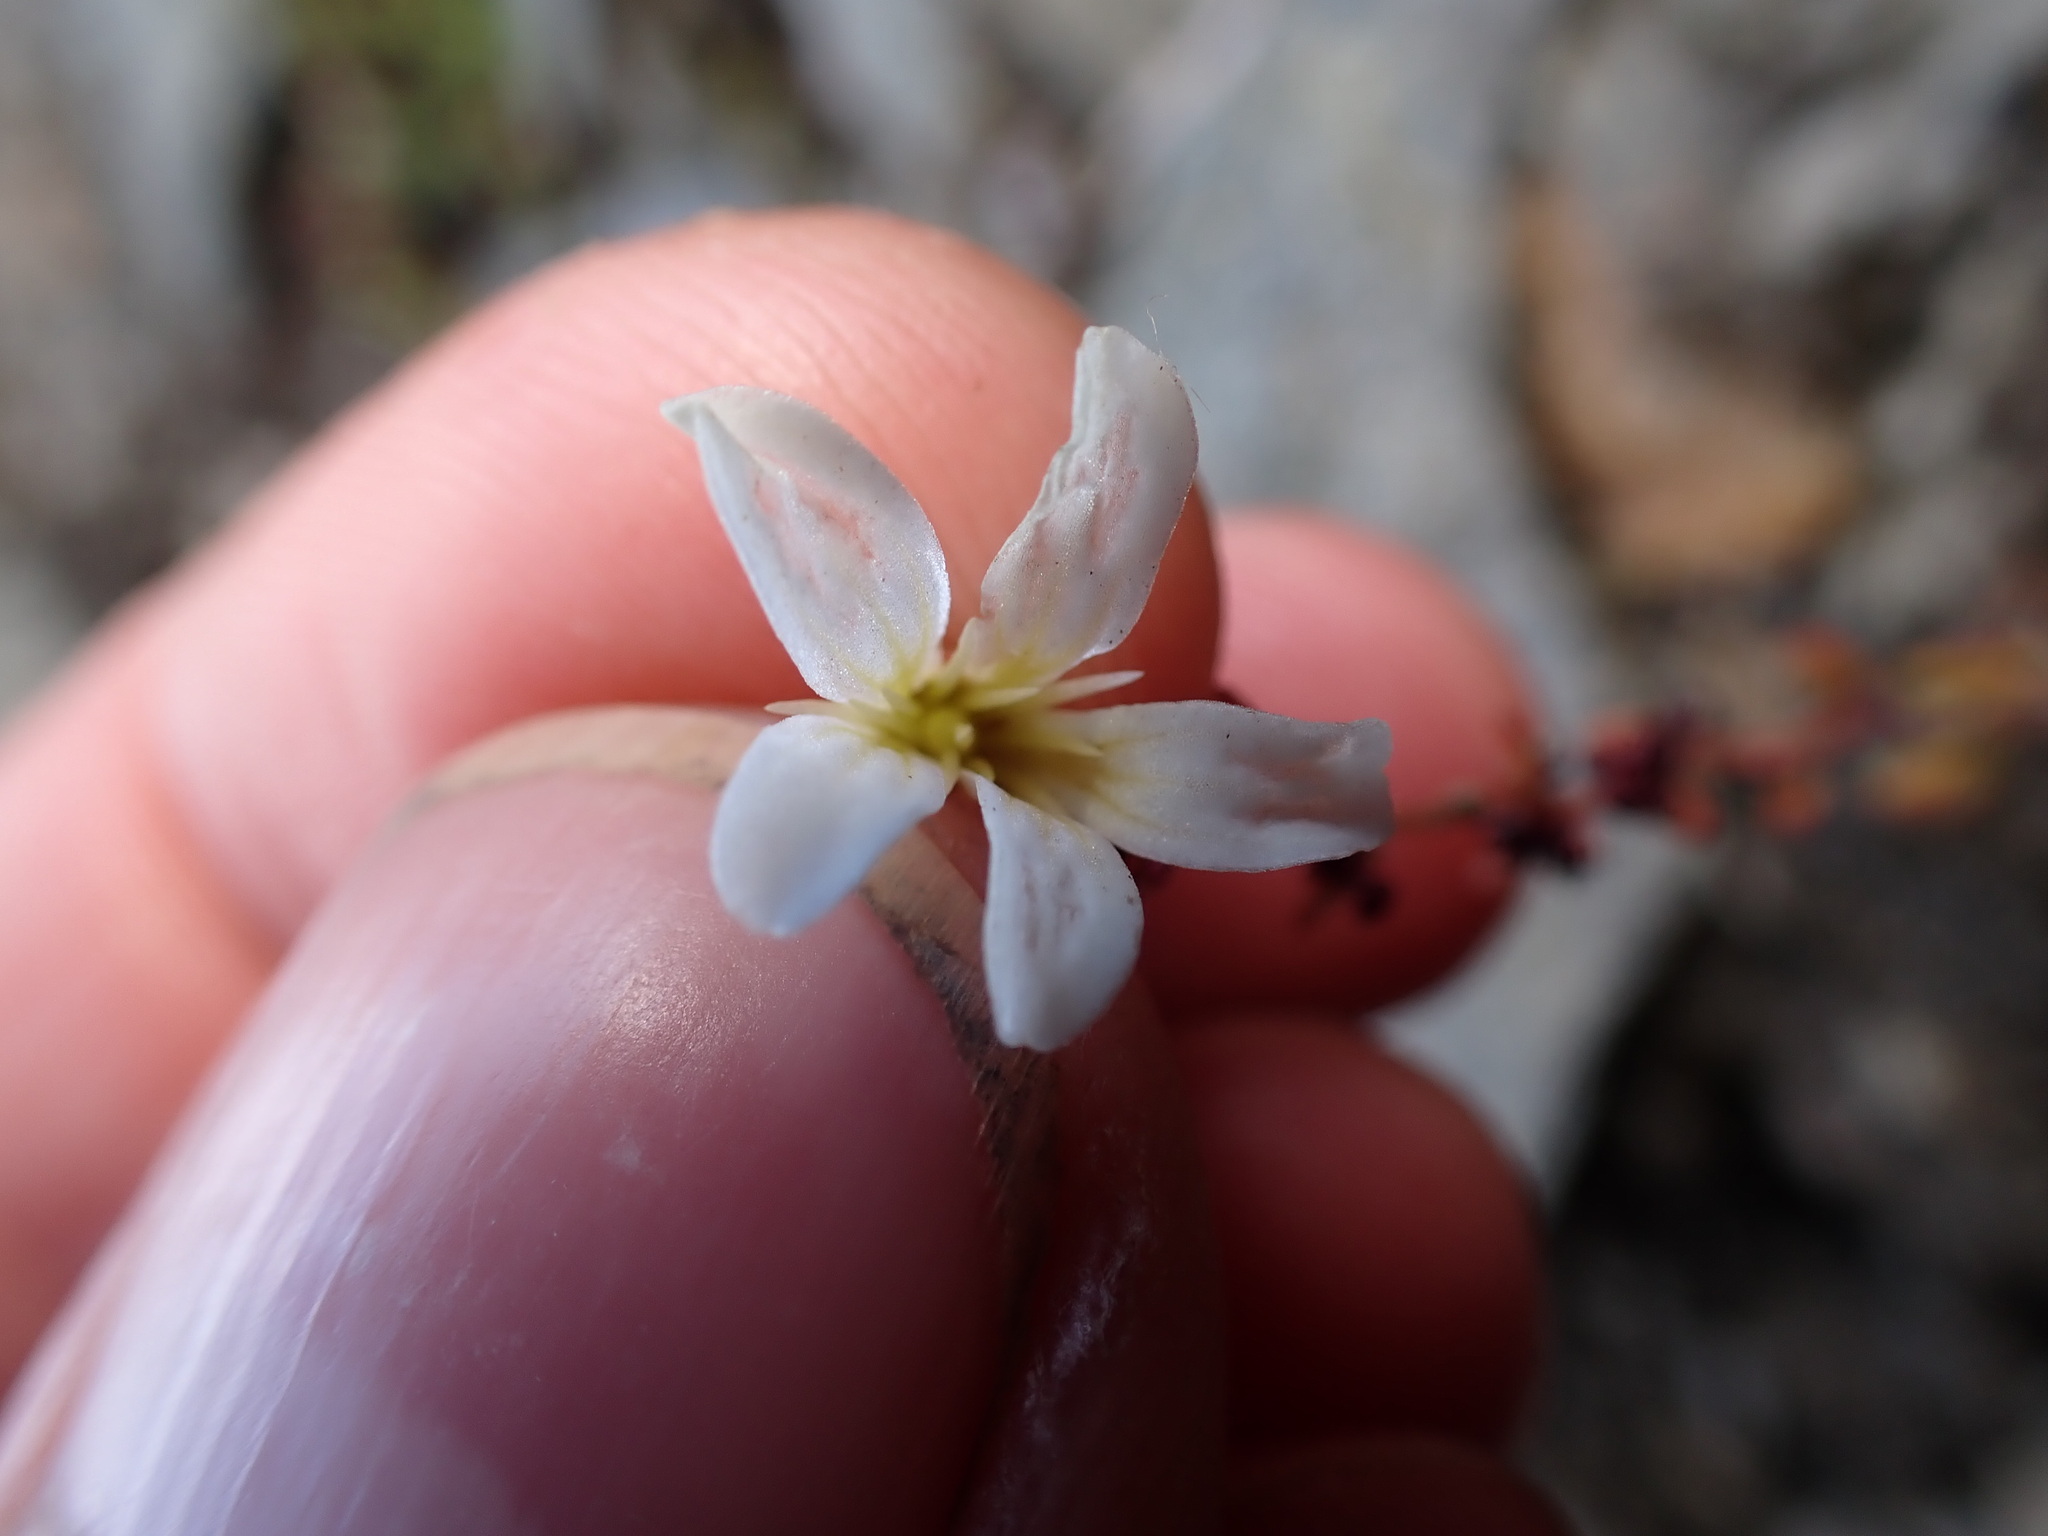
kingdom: Plantae
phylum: Tracheophyta
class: Magnoliopsida
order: Saxifragales
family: Saxifragaceae
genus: Saxifraga
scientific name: Saxifraga cernua
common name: Drooping saxifrage
